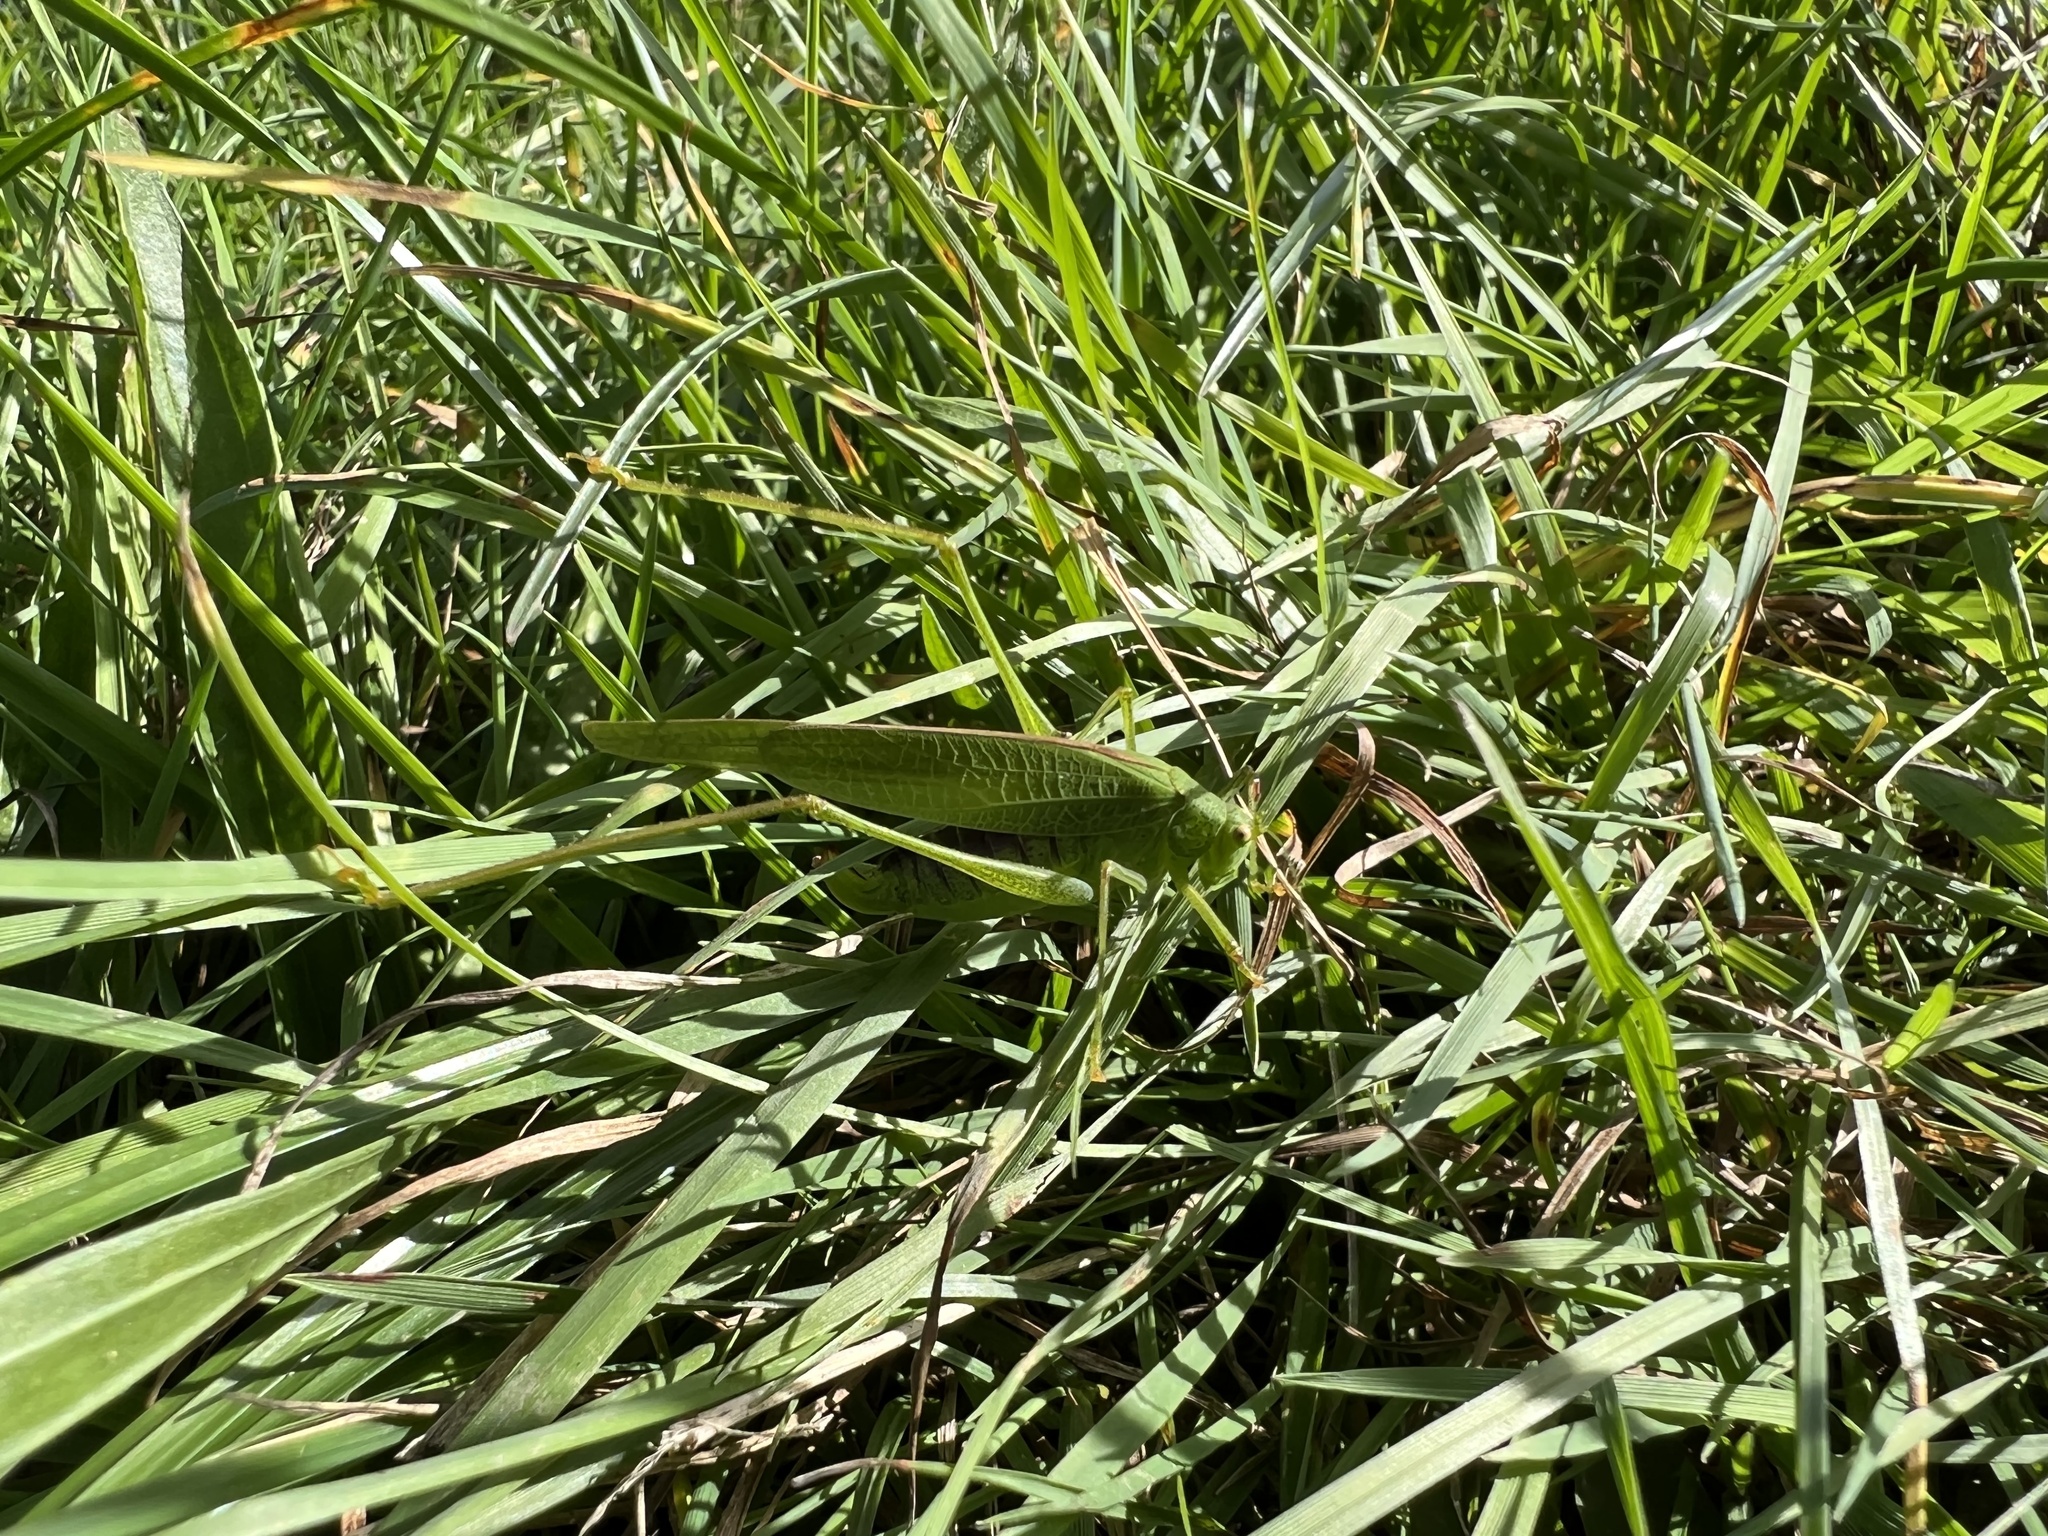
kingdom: Animalia
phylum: Arthropoda
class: Insecta
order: Orthoptera
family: Tettigoniidae
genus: Phaneroptera
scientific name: Phaneroptera nana
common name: Southern sickle bush-cricket
